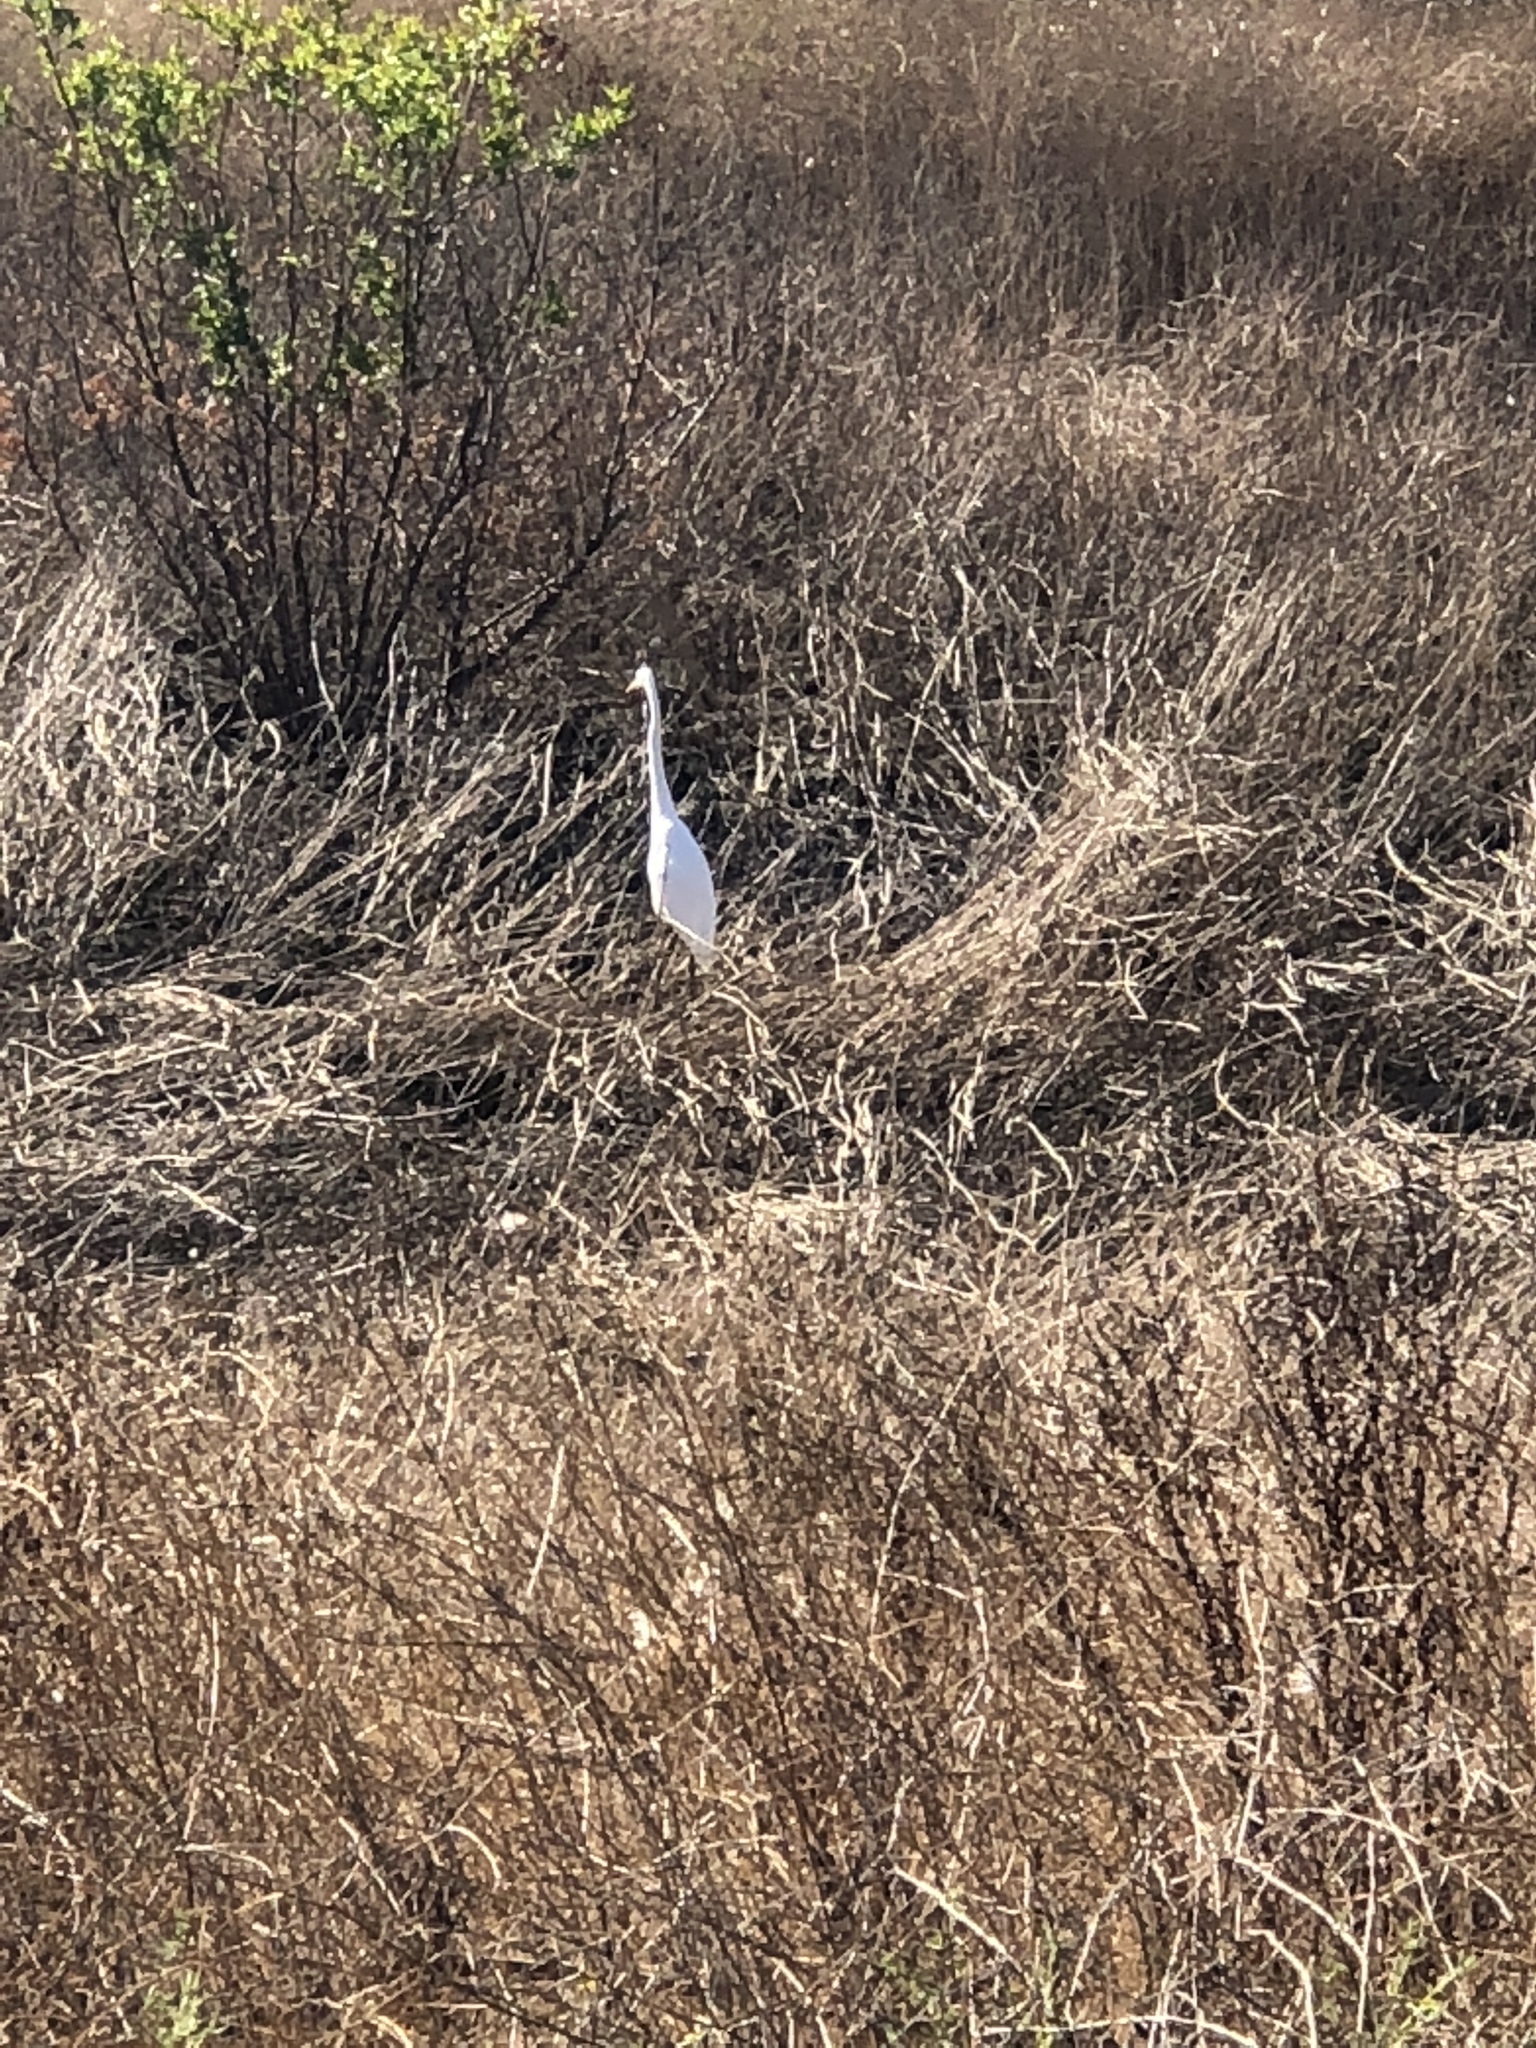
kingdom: Animalia
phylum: Chordata
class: Aves
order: Pelecaniformes
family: Ardeidae
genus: Ardea
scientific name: Ardea alba
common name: Great egret
